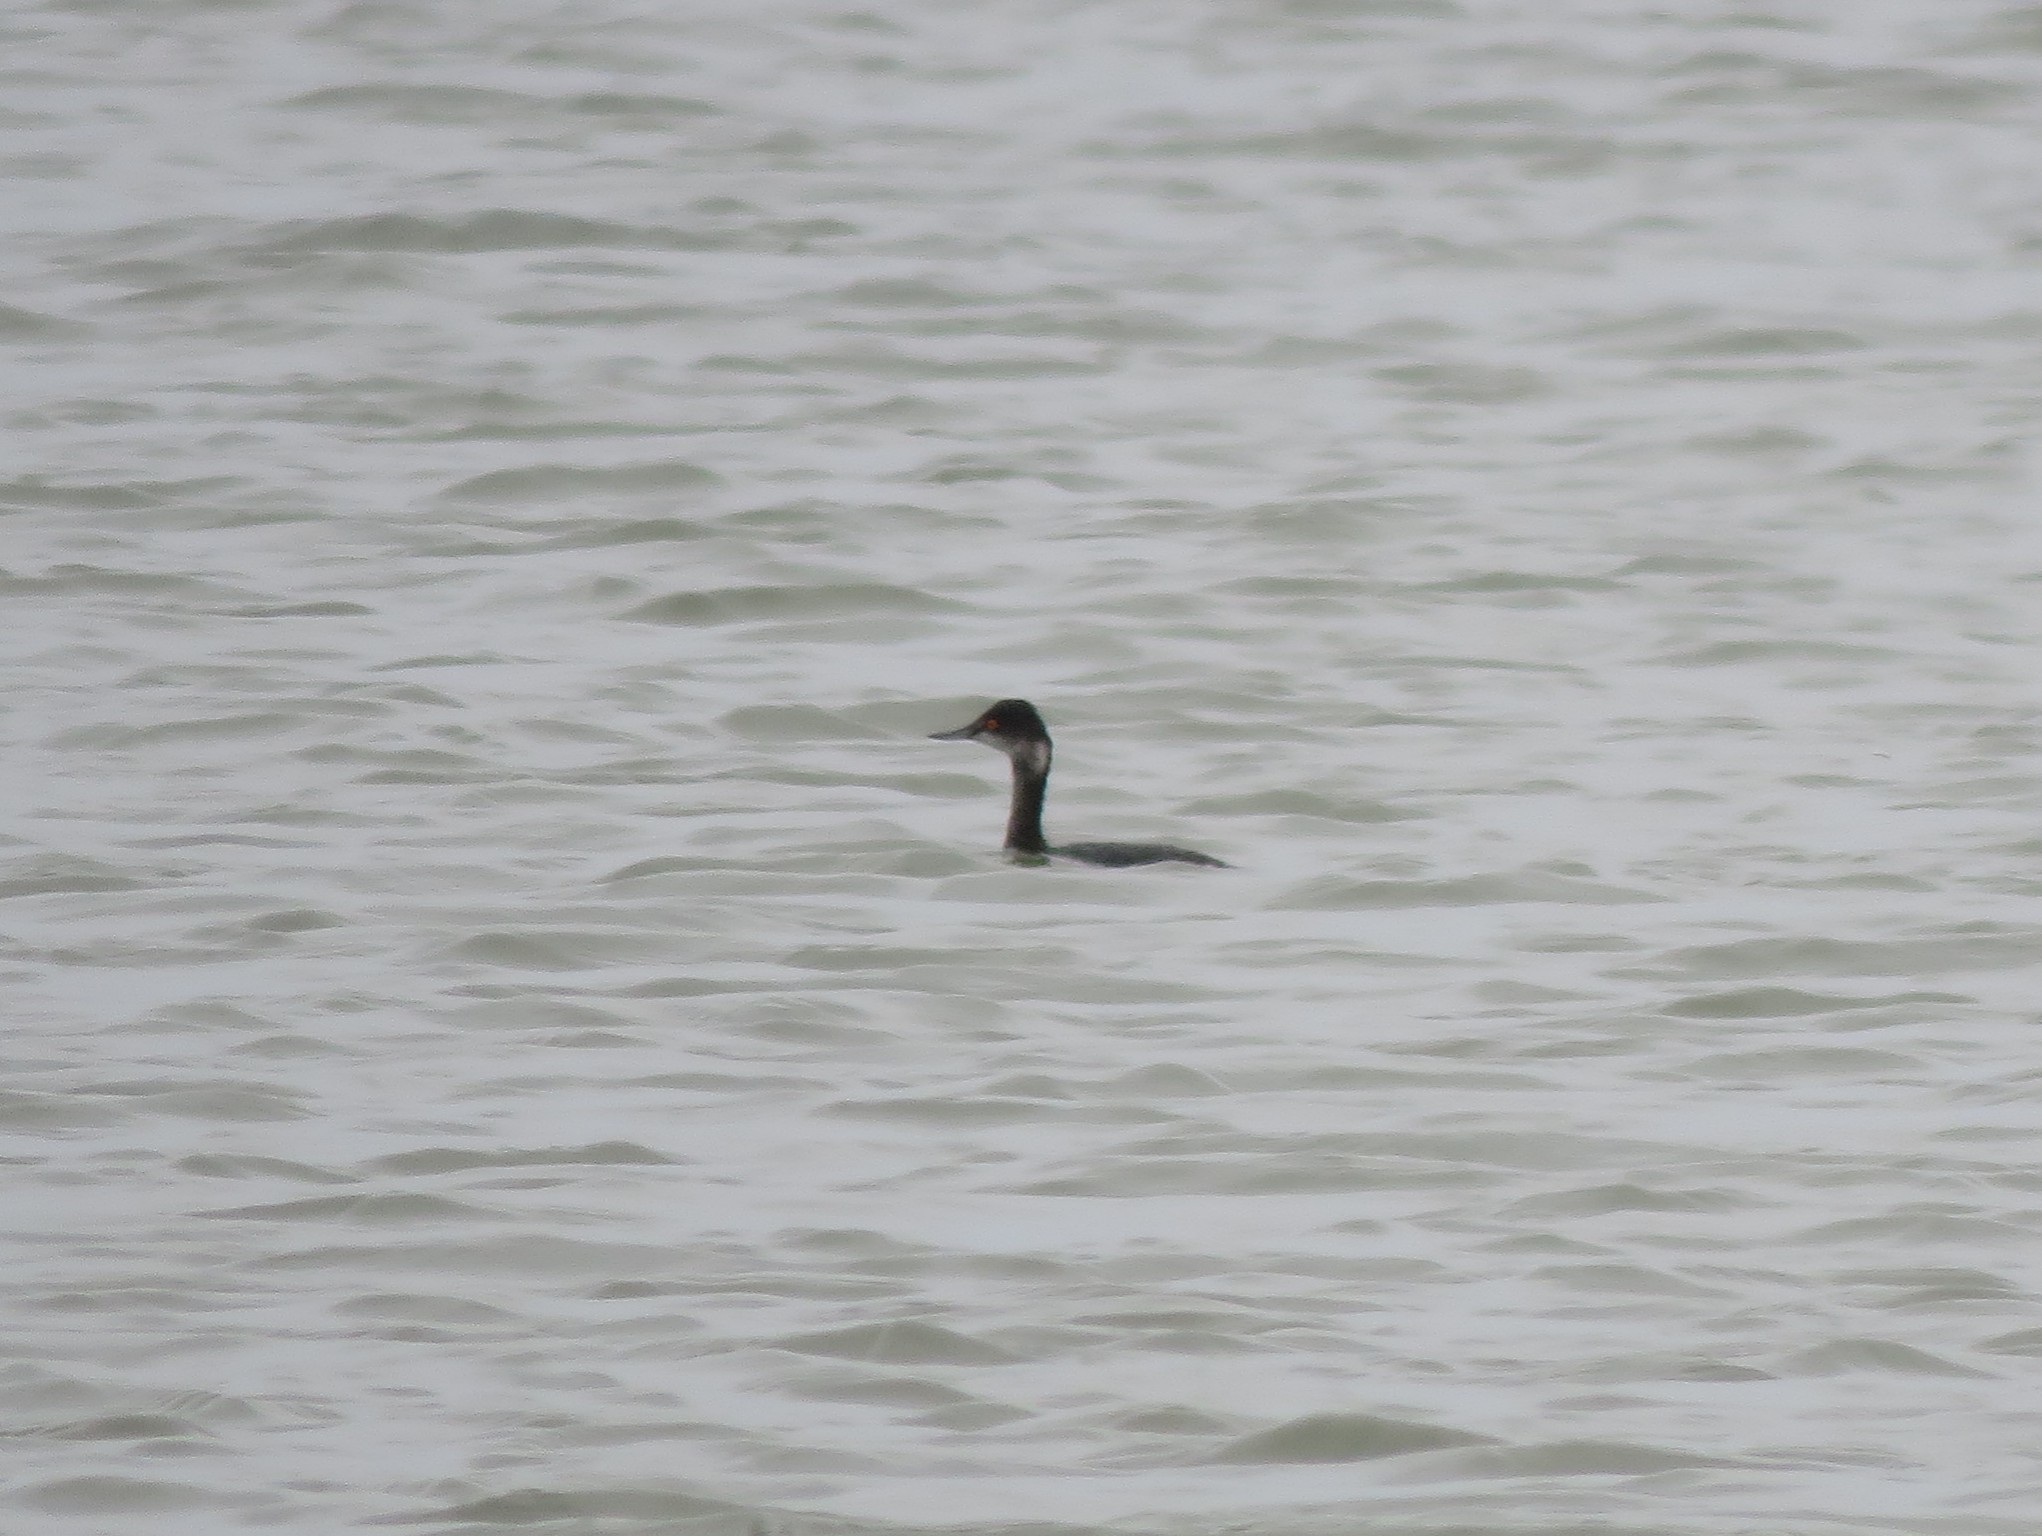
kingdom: Animalia
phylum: Chordata
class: Aves
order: Podicipediformes
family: Podicipedidae
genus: Podiceps
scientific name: Podiceps nigricollis
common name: Black-necked grebe
